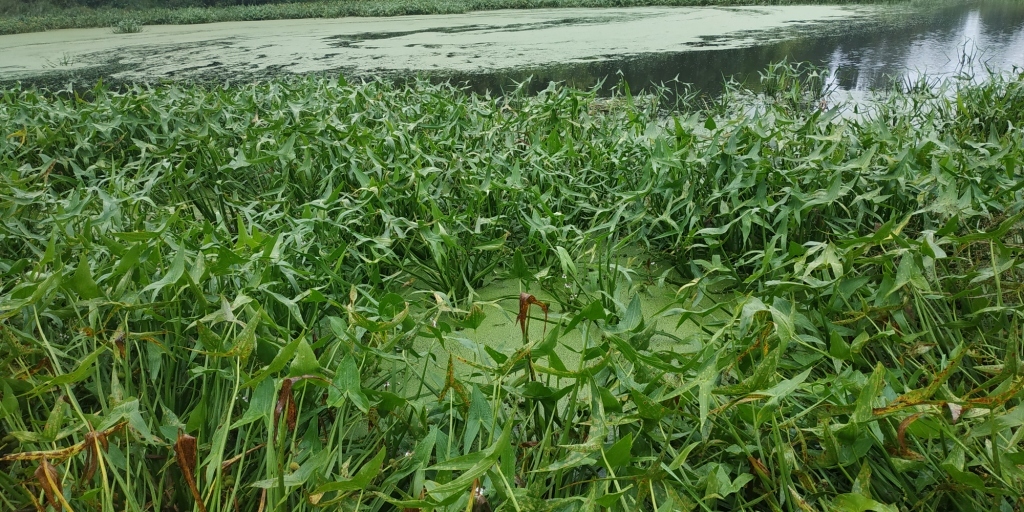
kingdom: Plantae
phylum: Tracheophyta
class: Liliopsida
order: Alismatales
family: Alismataceae
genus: Sagittaria
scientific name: Sagittaria sagittifolia
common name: Arrowhead
